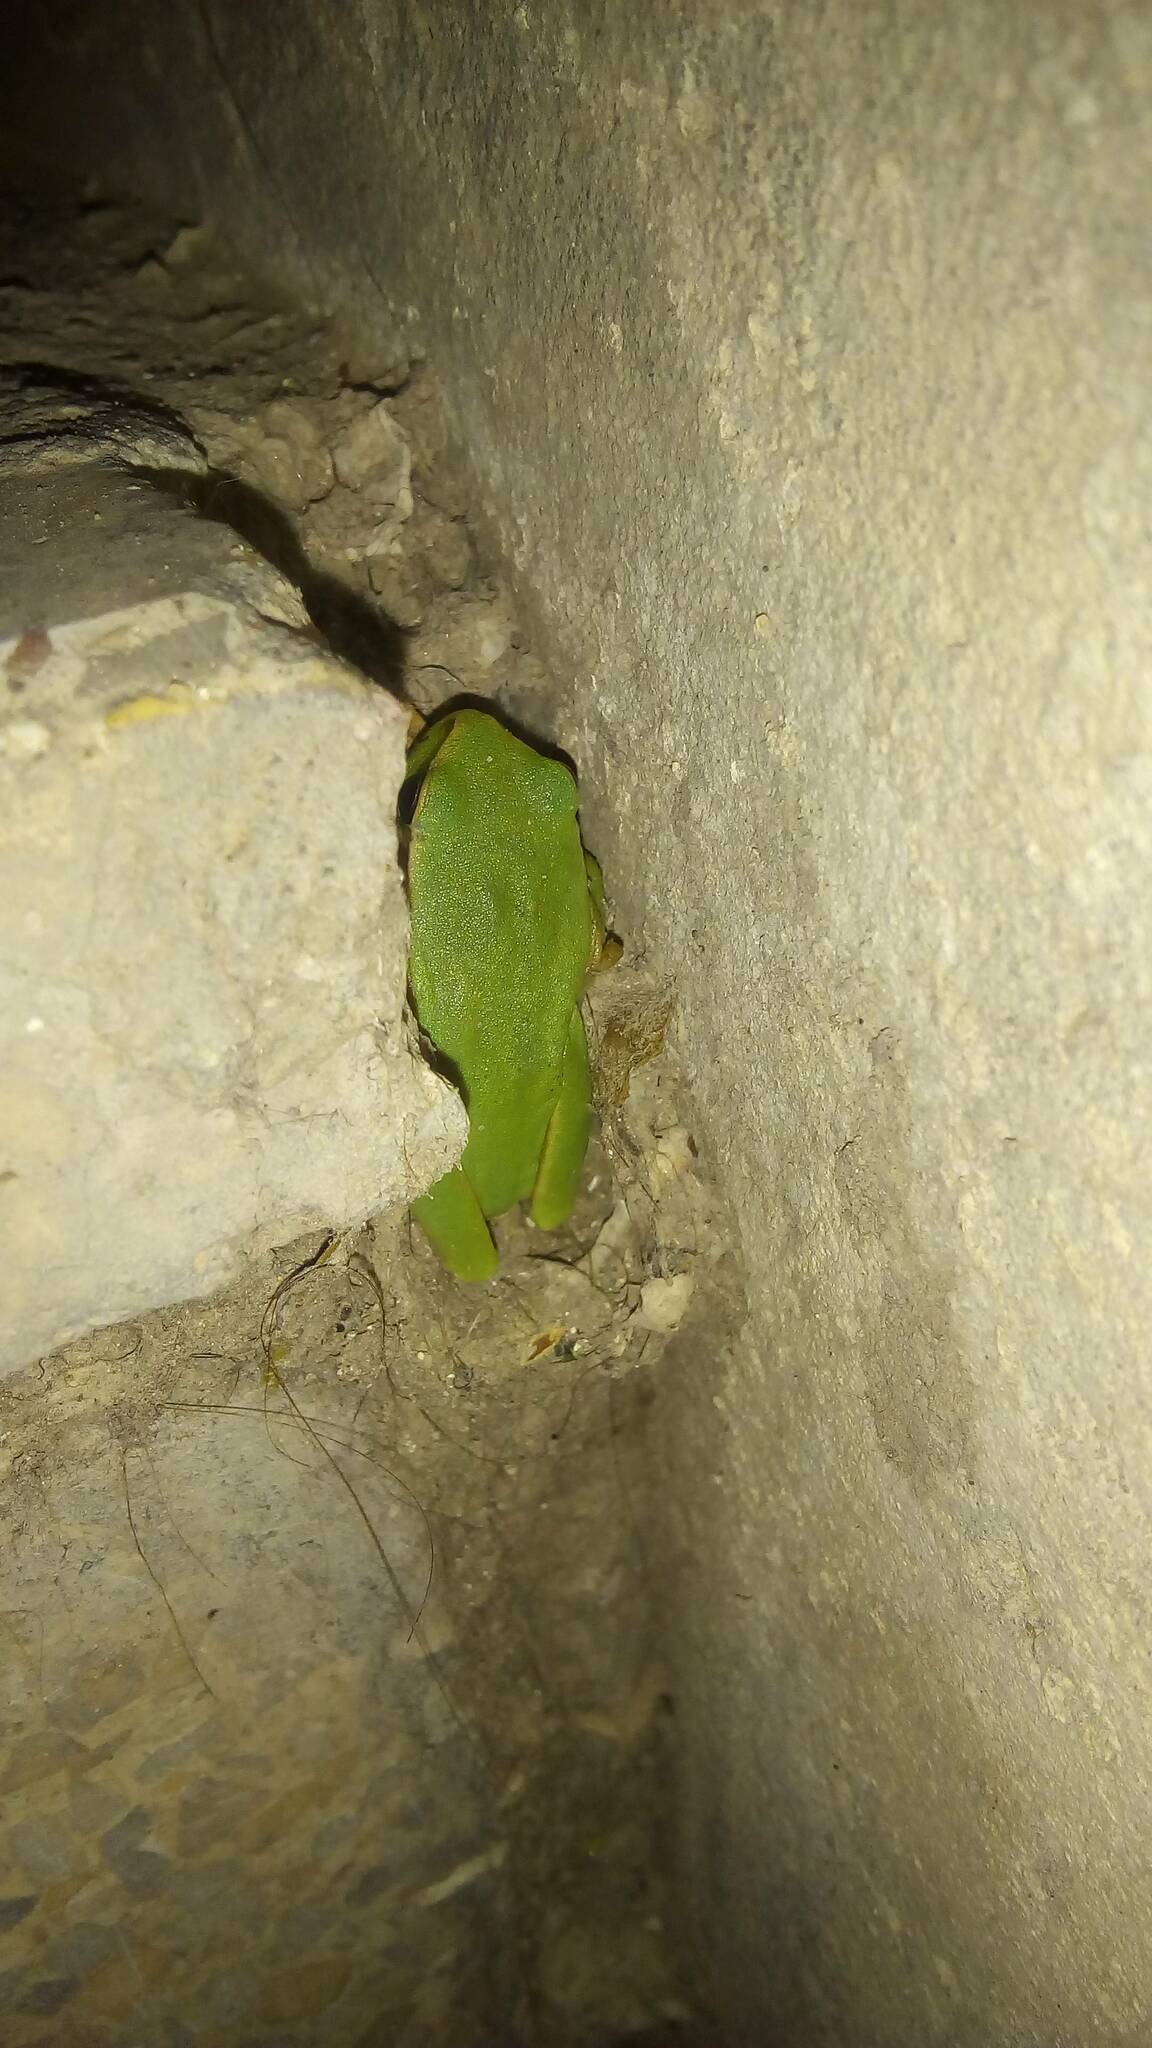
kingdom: Animalia
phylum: Chordata
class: Amphibia
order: Anura
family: Hylidae
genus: Hyla
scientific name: Hyla meridionalis
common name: Stripeless tree frog
